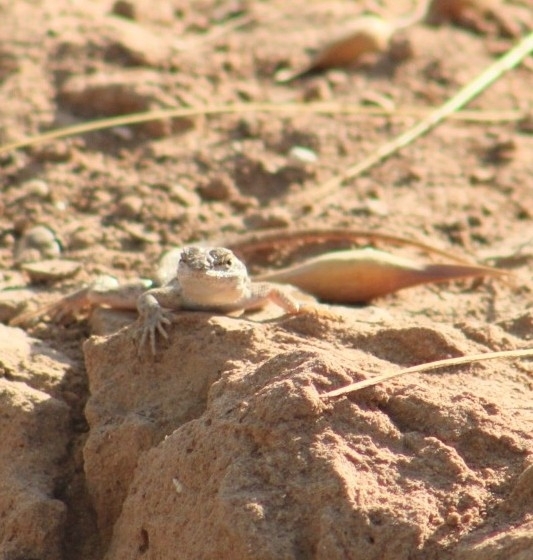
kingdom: Animalia
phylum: Chordata
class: Squamata
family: Phrynosomatidae
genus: Uta
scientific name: Uta stansburiana
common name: Side-blotched lizard
